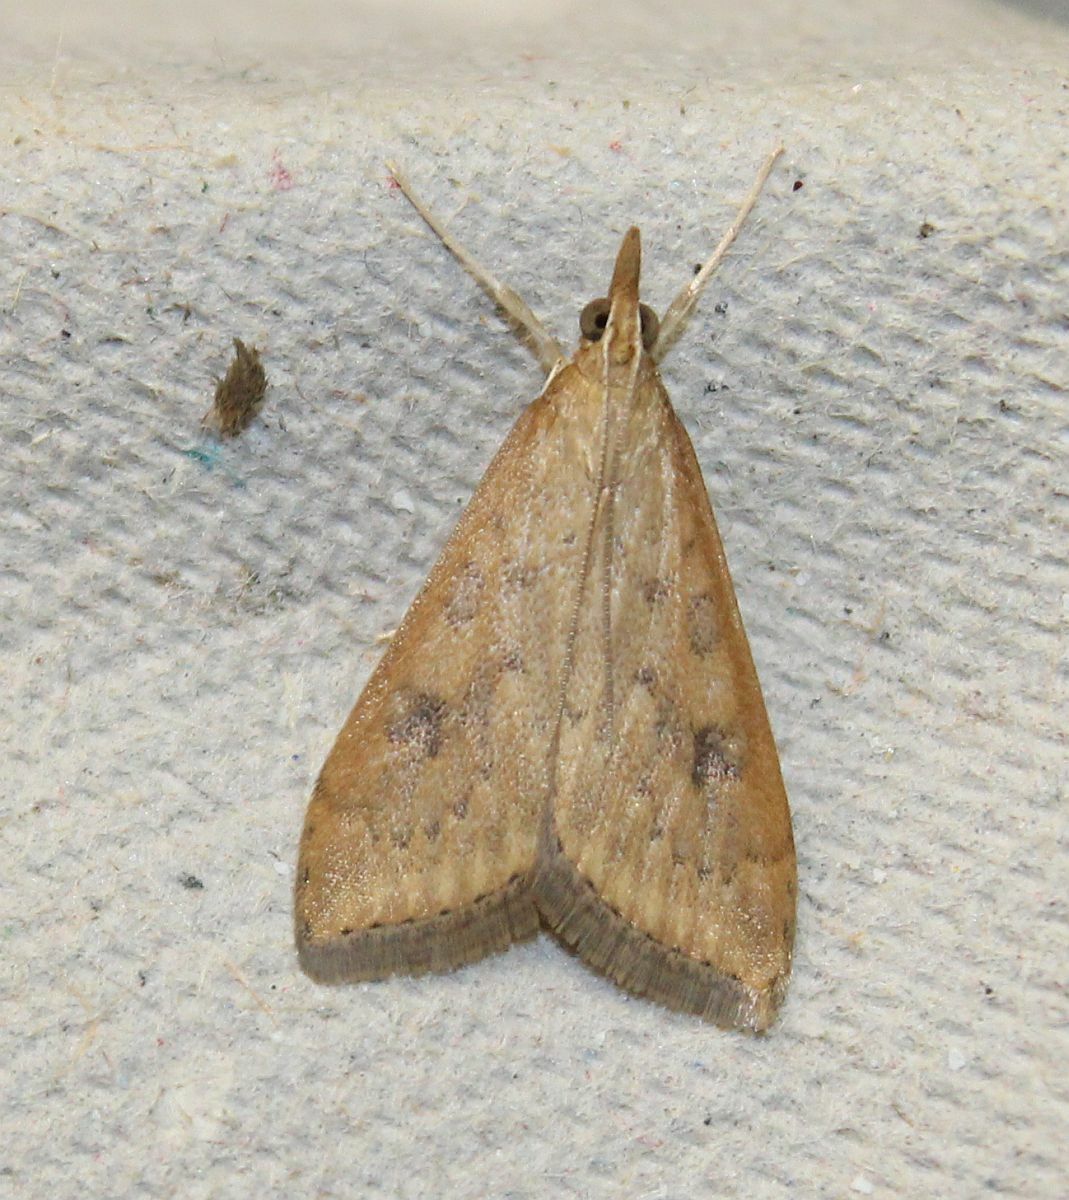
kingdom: Animalia
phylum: Arthropoda
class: Insecta
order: Lepidoptera
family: Crambidae
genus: Udea
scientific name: Udea ferrugalis
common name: Rusty dot
